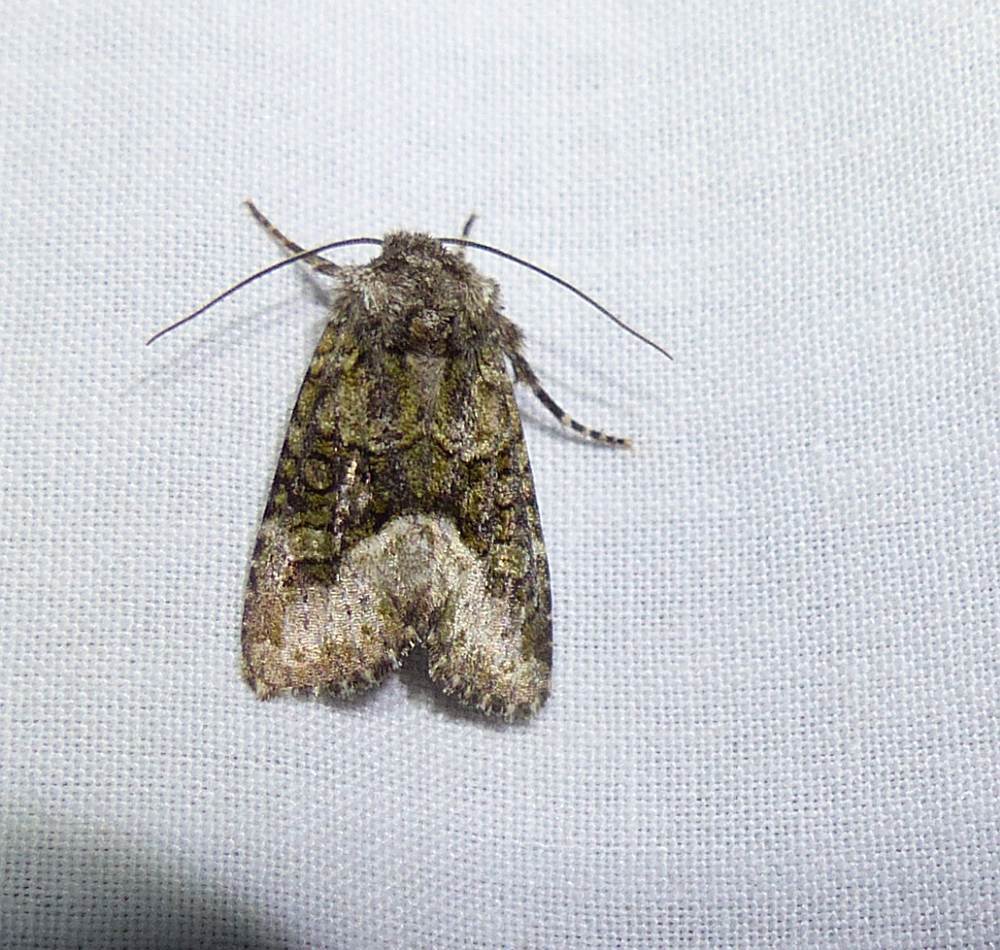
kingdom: Animalia
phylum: Arthropoda
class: Insecta
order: Lepidoptera
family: Noctuidae
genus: Lacinipolia
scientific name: Lacinipolia olivacea
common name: Olive arches moth
